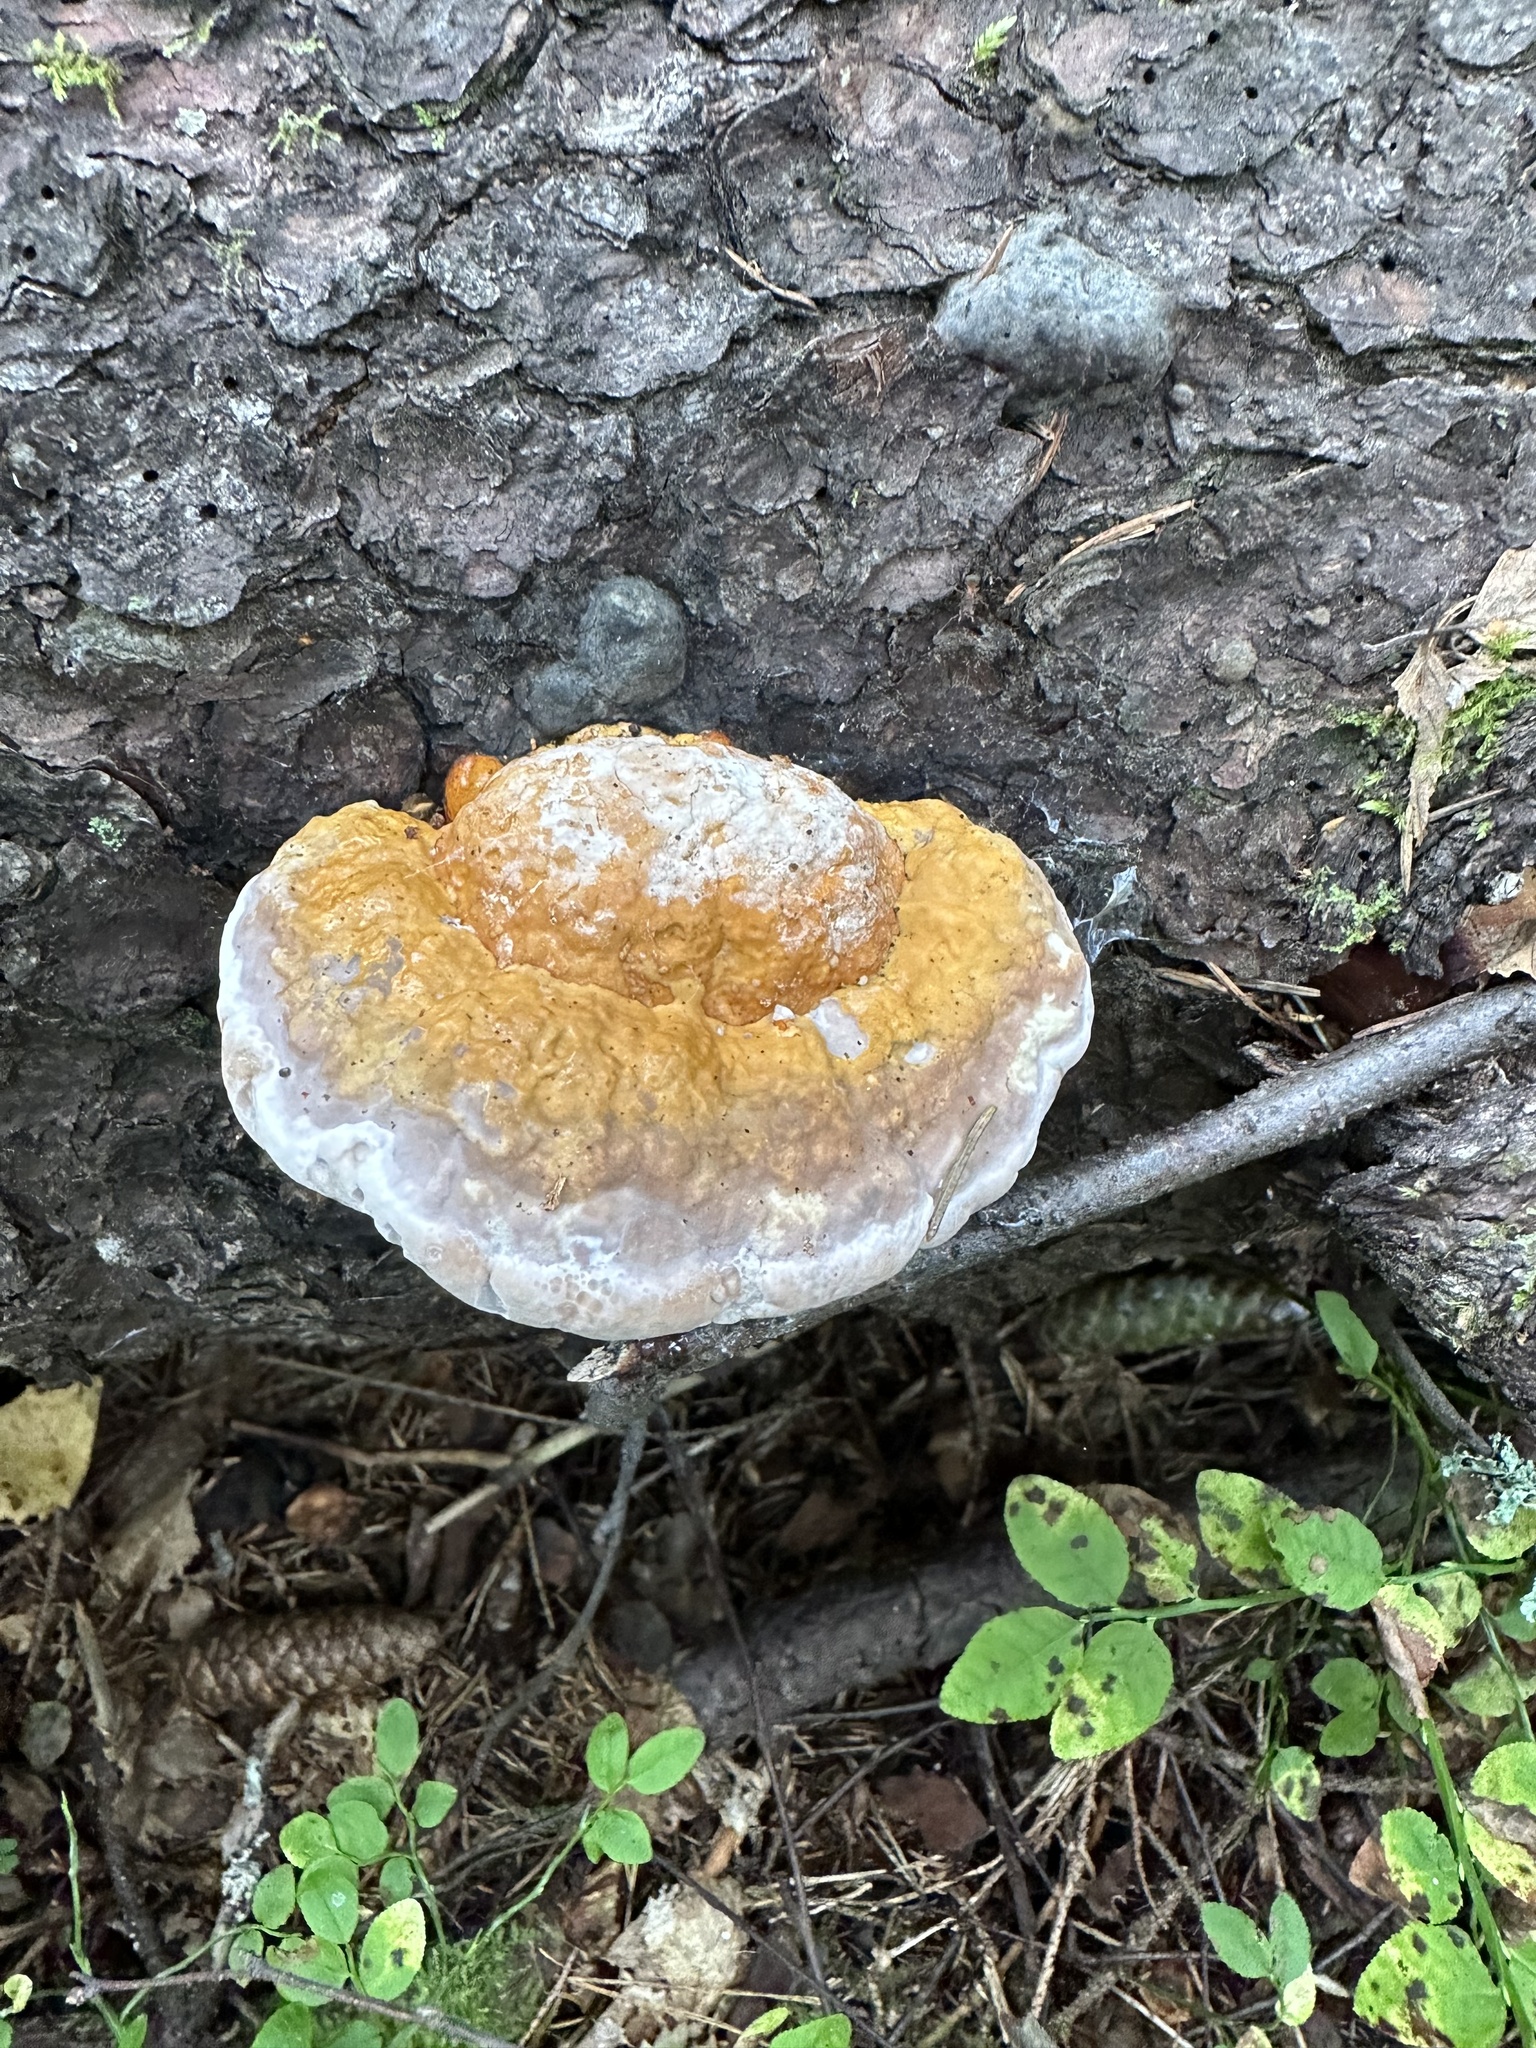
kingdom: Fungi
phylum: Basidiomycota
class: Agaricomycetes
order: Polyporales
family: Fomitopsidaceae
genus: Fomitopsis
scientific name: Fomitopsis pinicola
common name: Red-belted bracket
